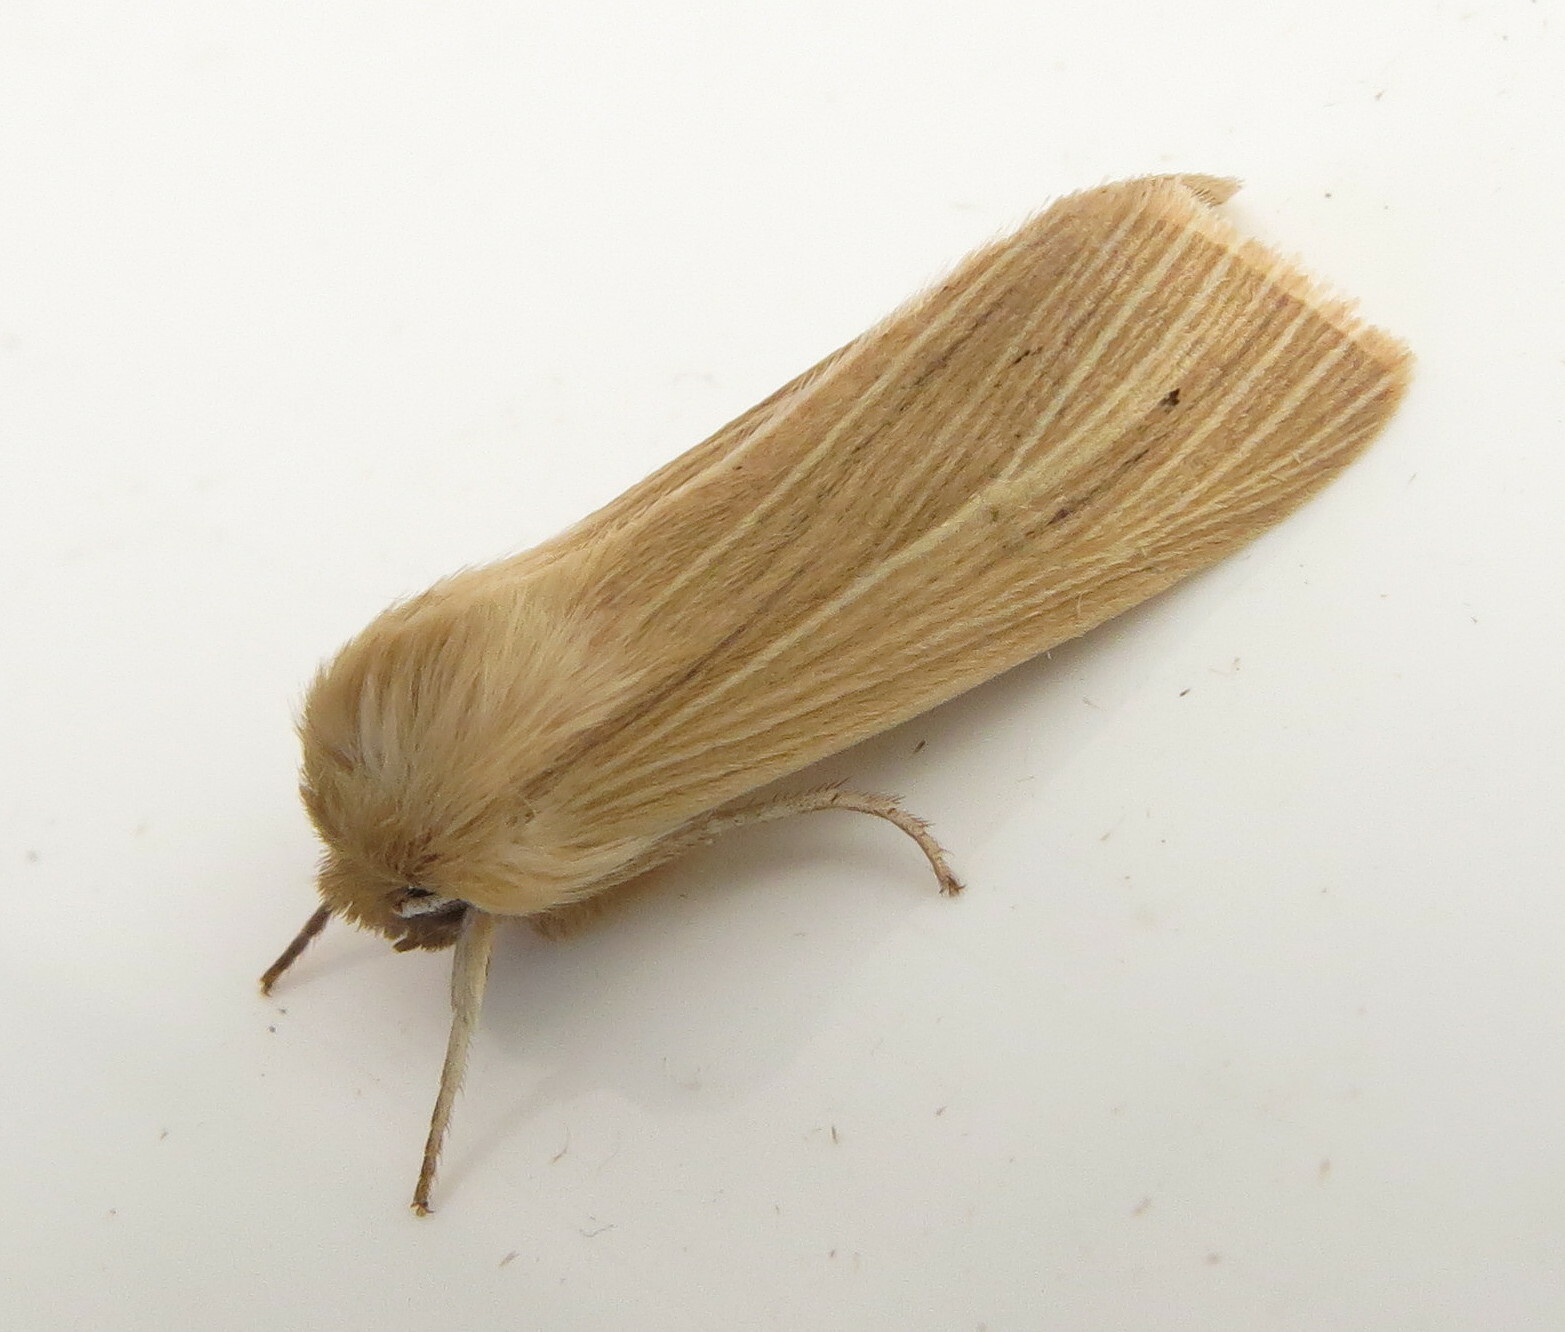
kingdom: Animalia
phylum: Arthropoda
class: Insecta
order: Lepidoptera
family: Noctuidae
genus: Mythimna
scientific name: Mythimna pallens
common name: Common wainscot
